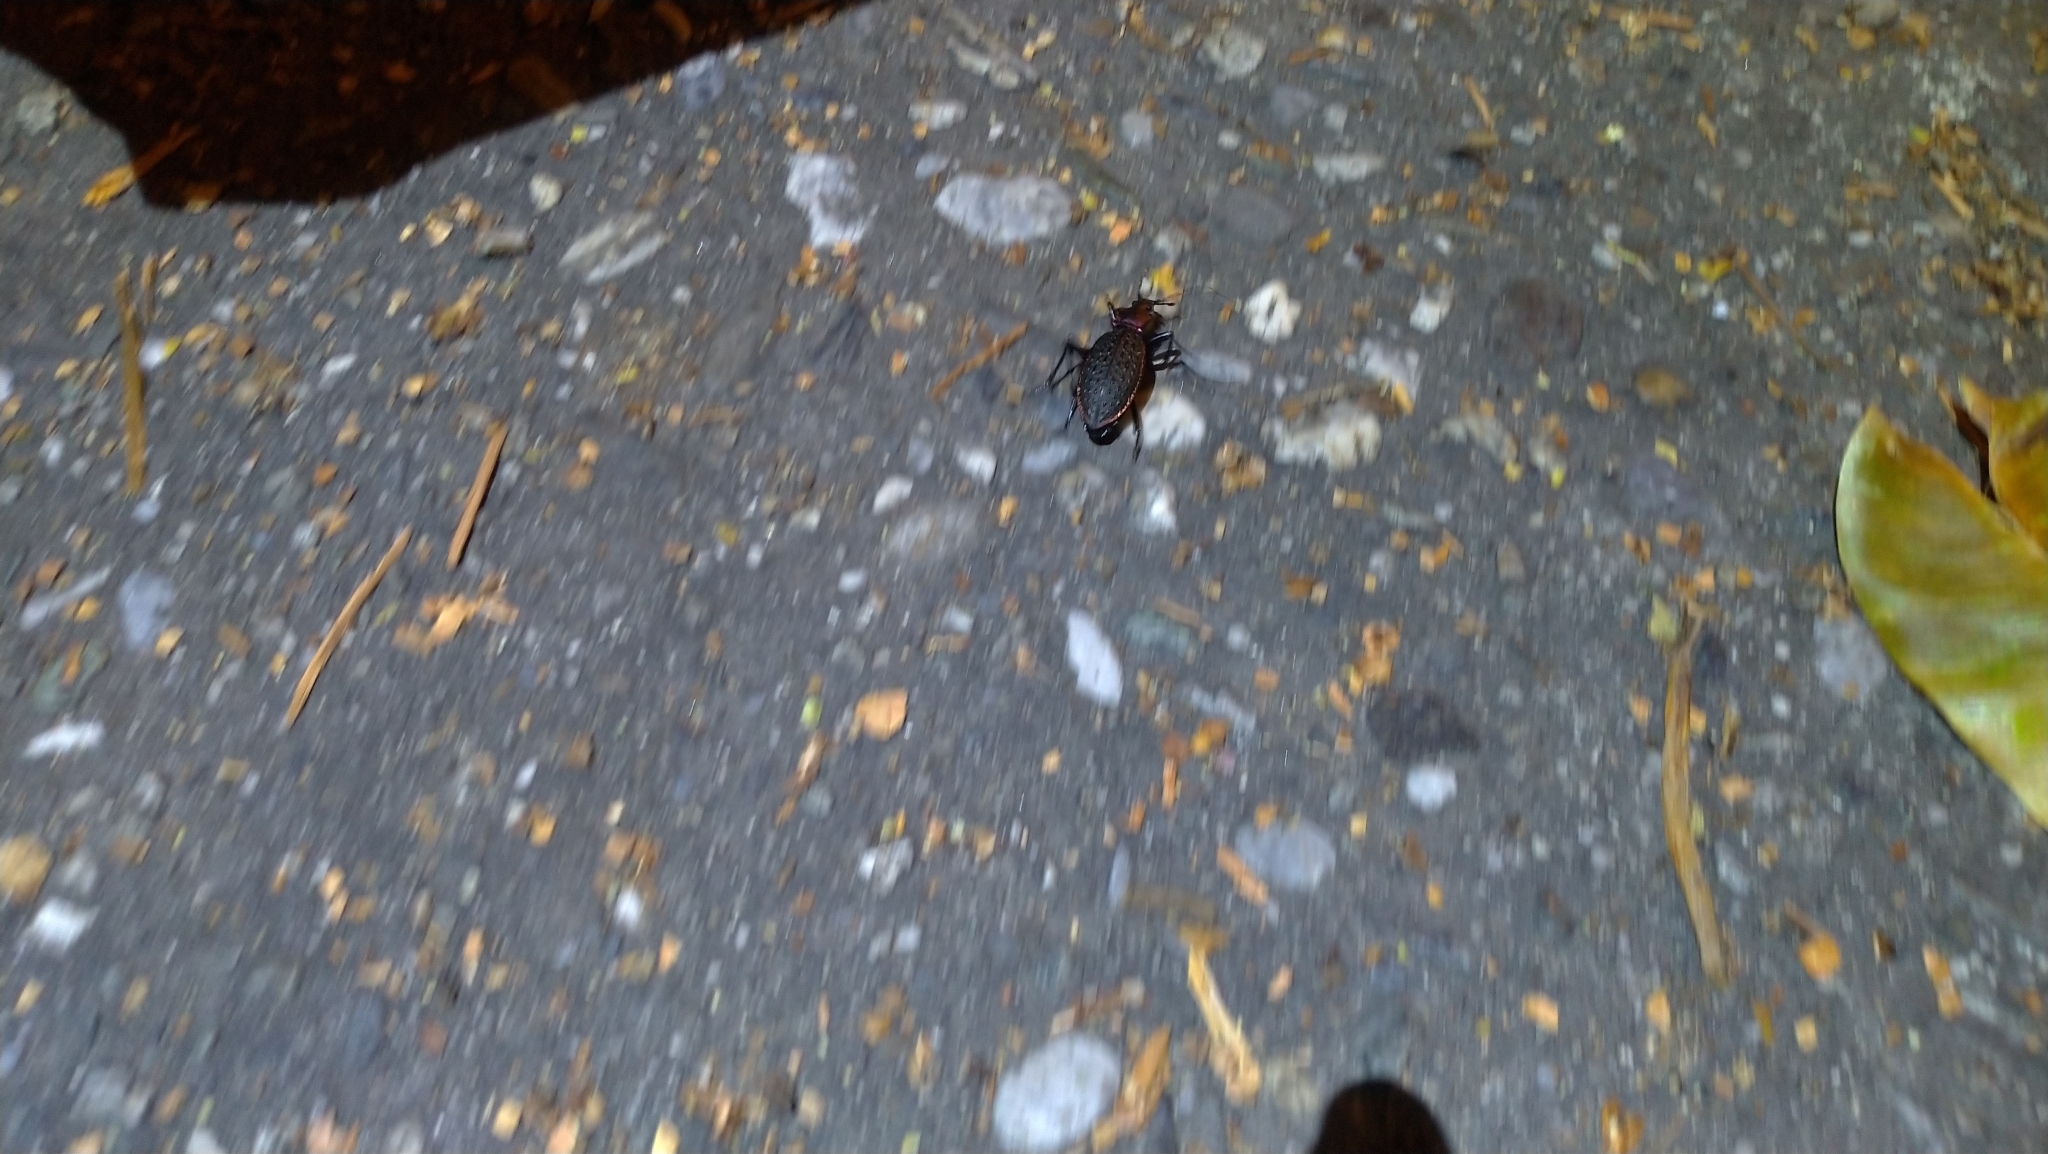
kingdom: Animalia
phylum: Arthropoda
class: Insecta
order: Coleoptera
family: Carabidae
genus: Carabus
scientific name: Carabus nankotaizanus
